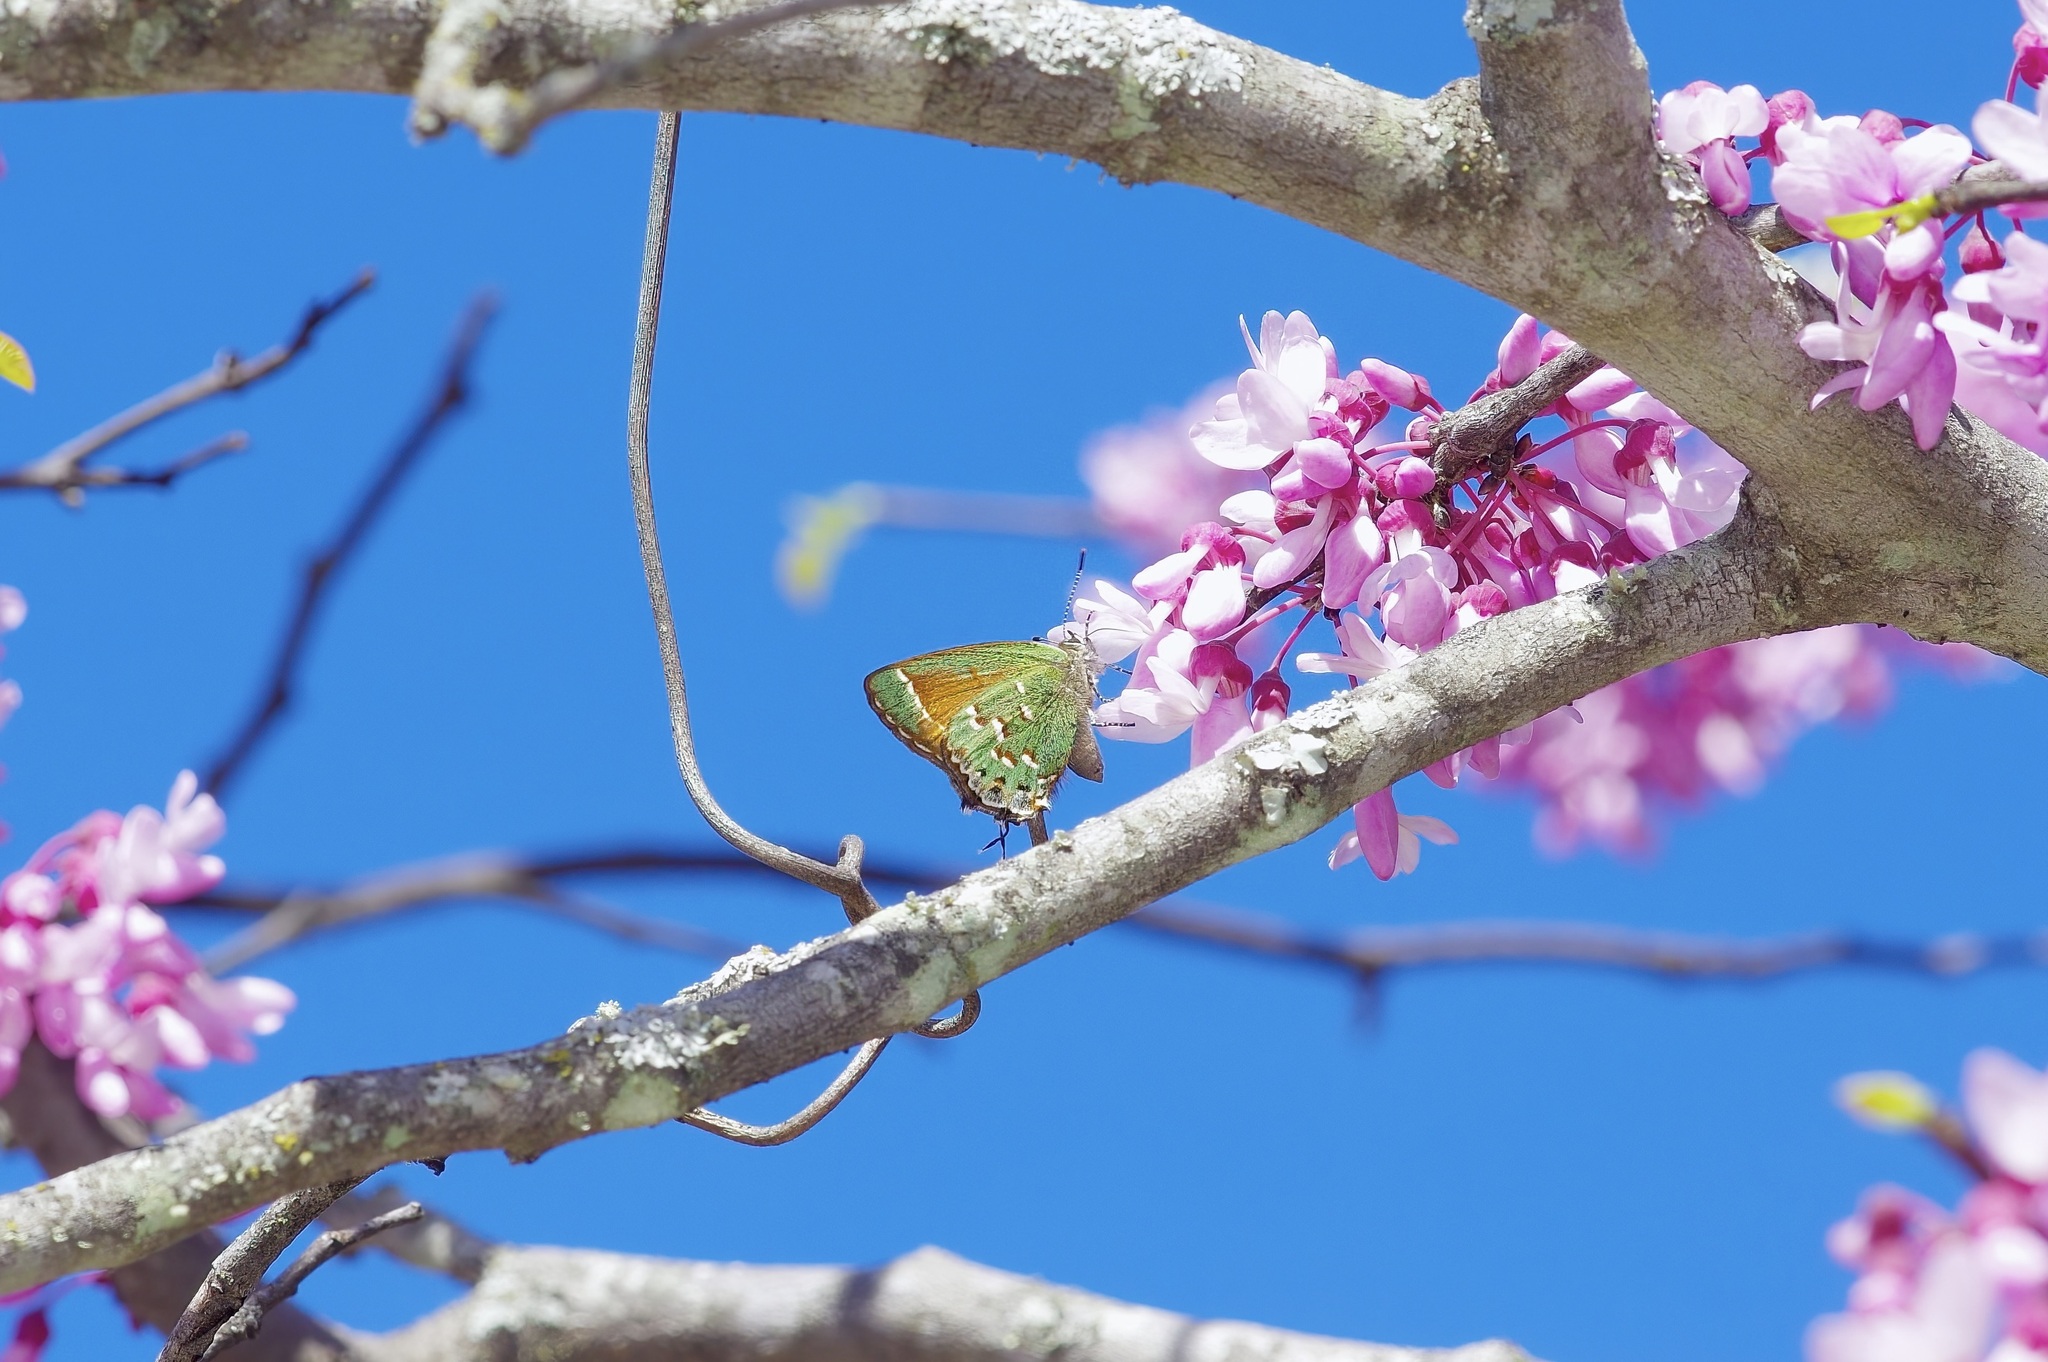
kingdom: Animalia
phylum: Arthropoda
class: Insecta
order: Lepidoptera
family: Lycaenidae
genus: Mitoura
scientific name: Mitoura gryneus
